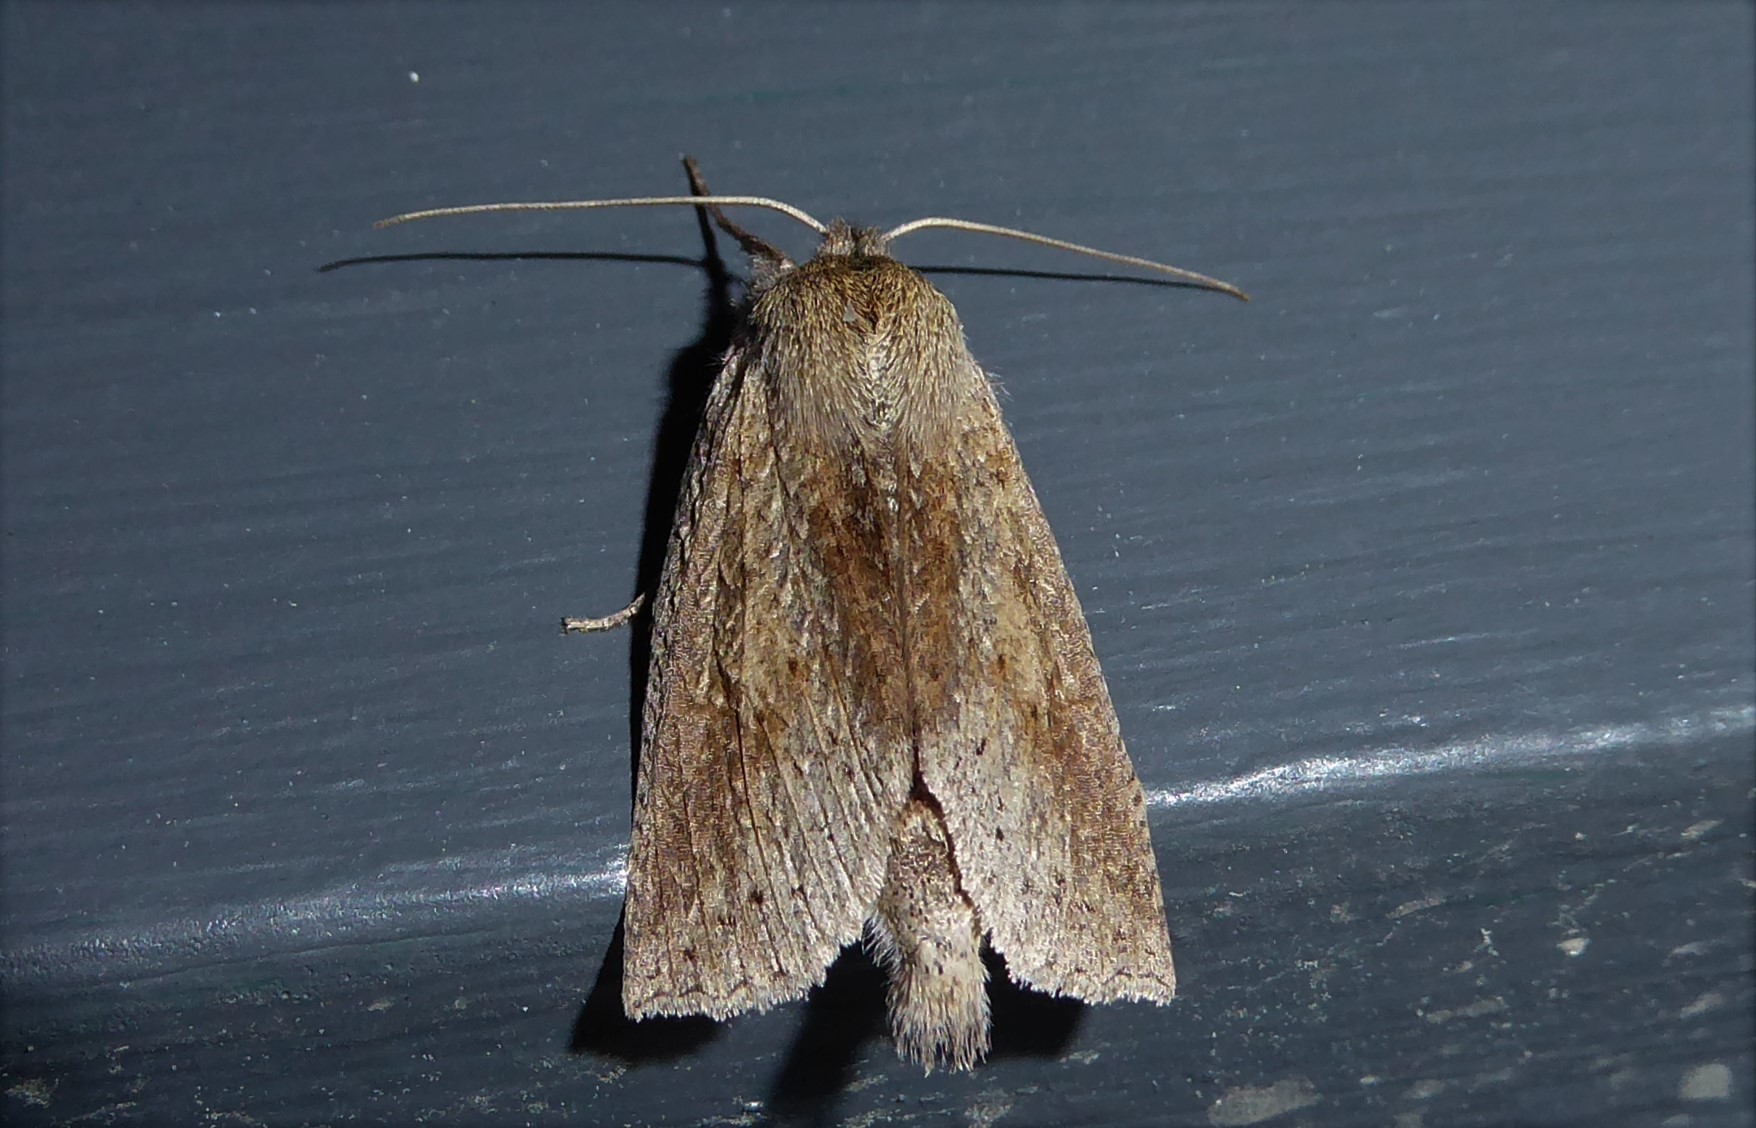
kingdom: Animalia
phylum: Arthropoda
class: Insecta
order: Lepidoptera
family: Geometridae
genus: Declana
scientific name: Declana leptomera
